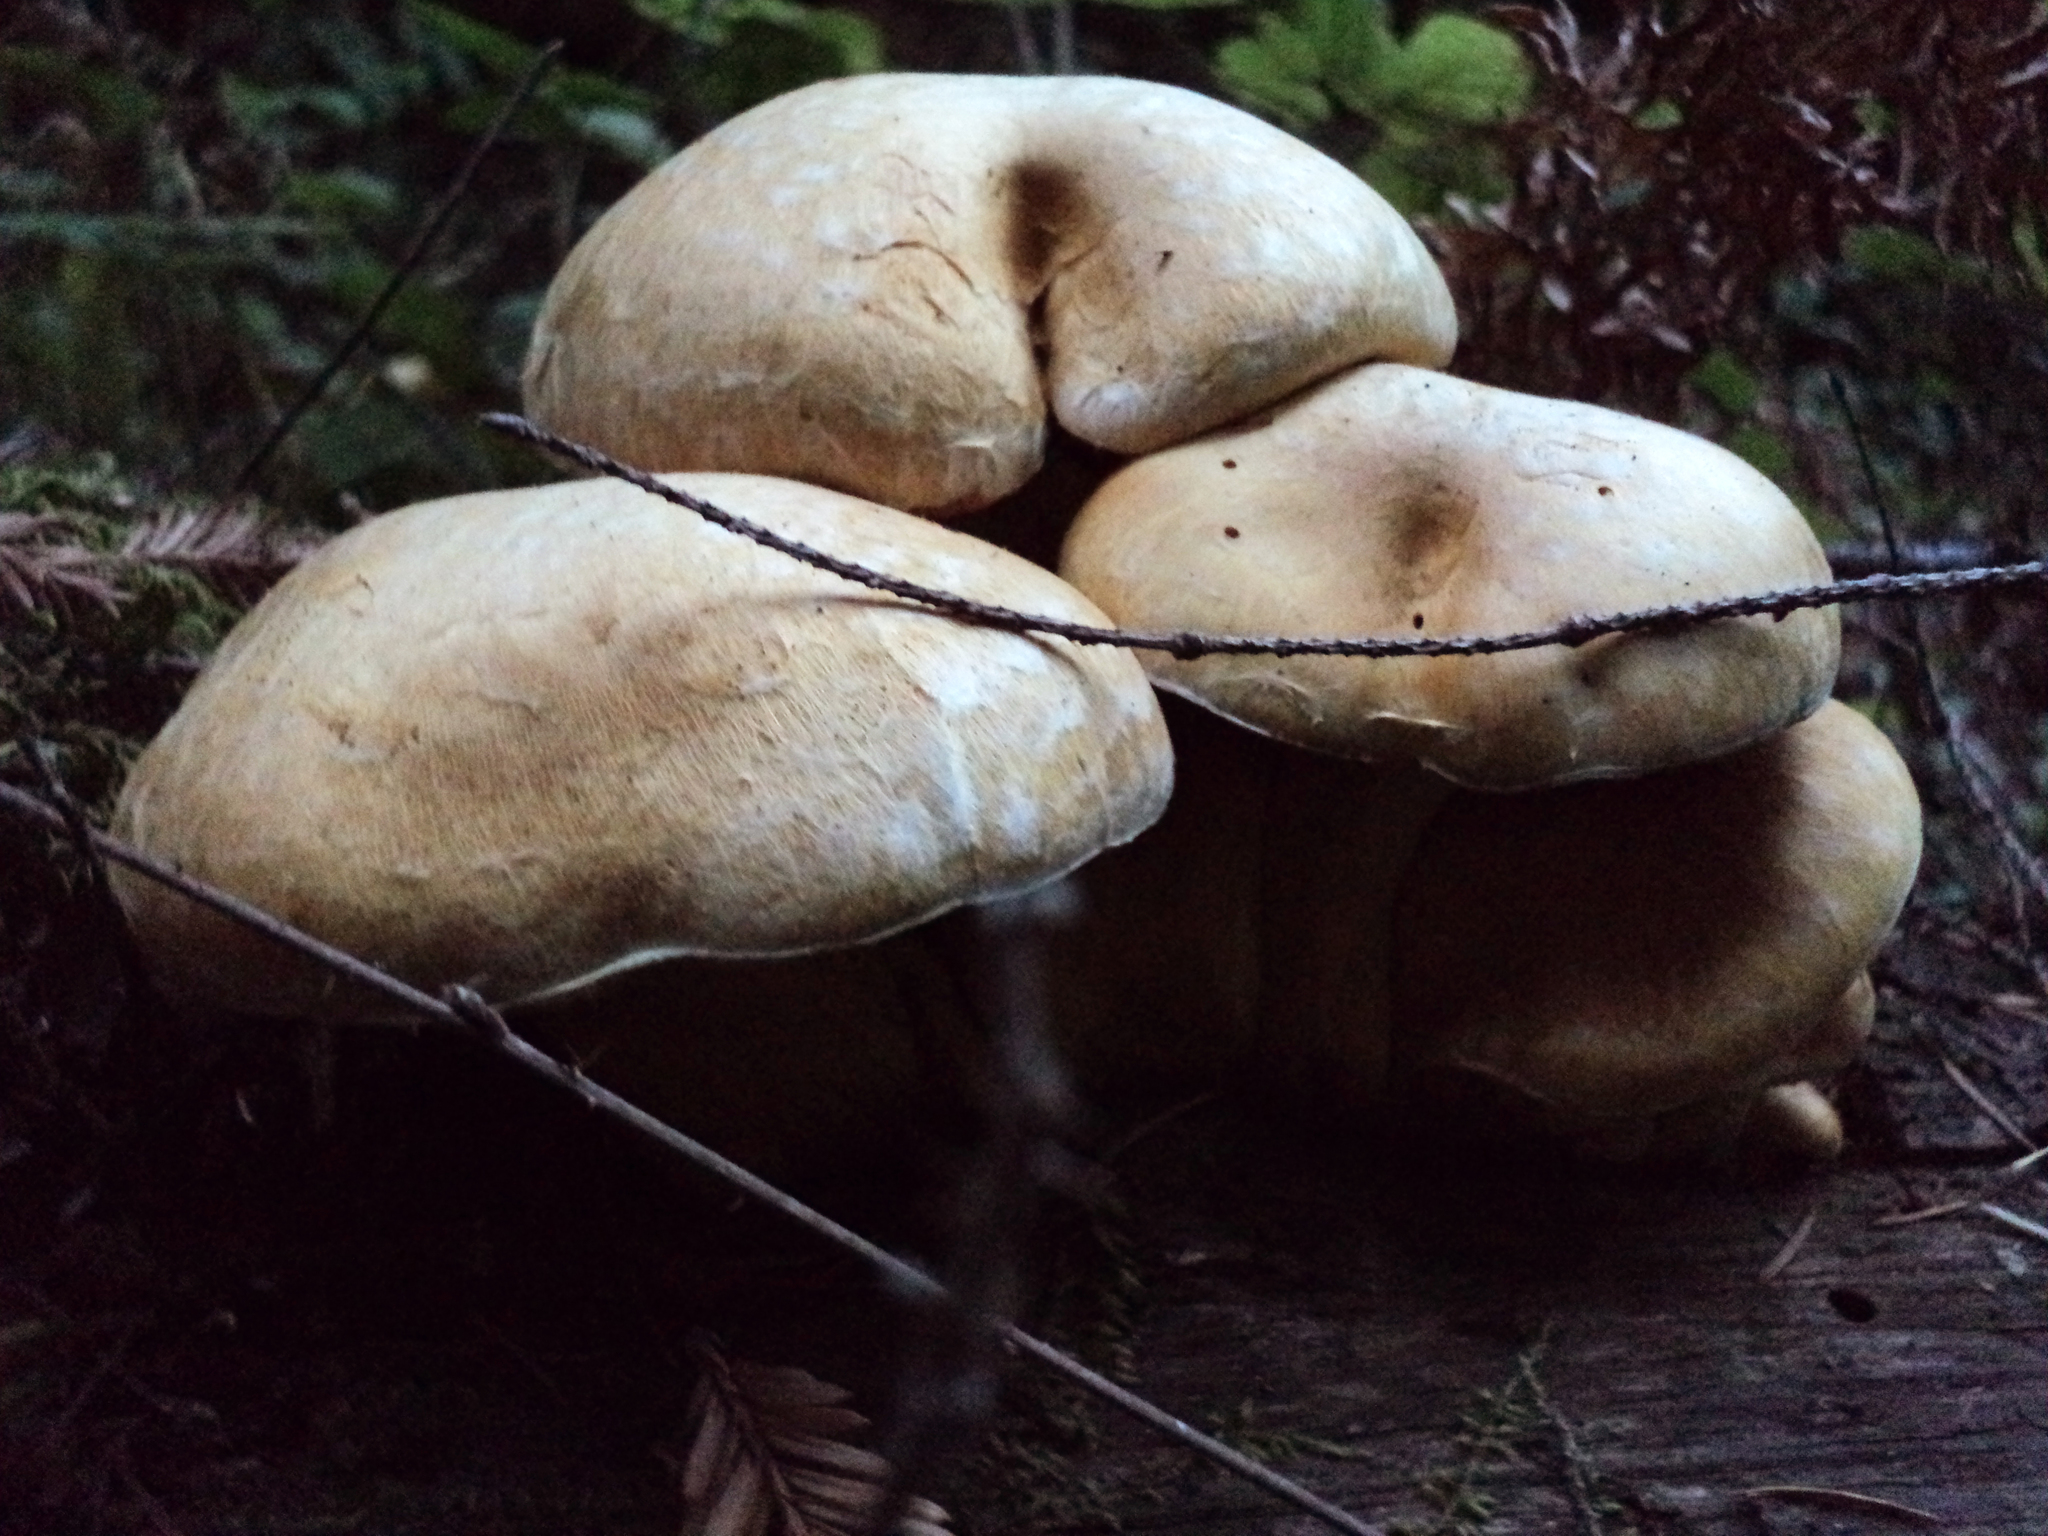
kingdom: Fungi
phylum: Basidiomycota
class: Agaricomycetes
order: Agaricales
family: Hymenogastraceae
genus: Gymnopilus
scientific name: Gymnopilus ventricosus
